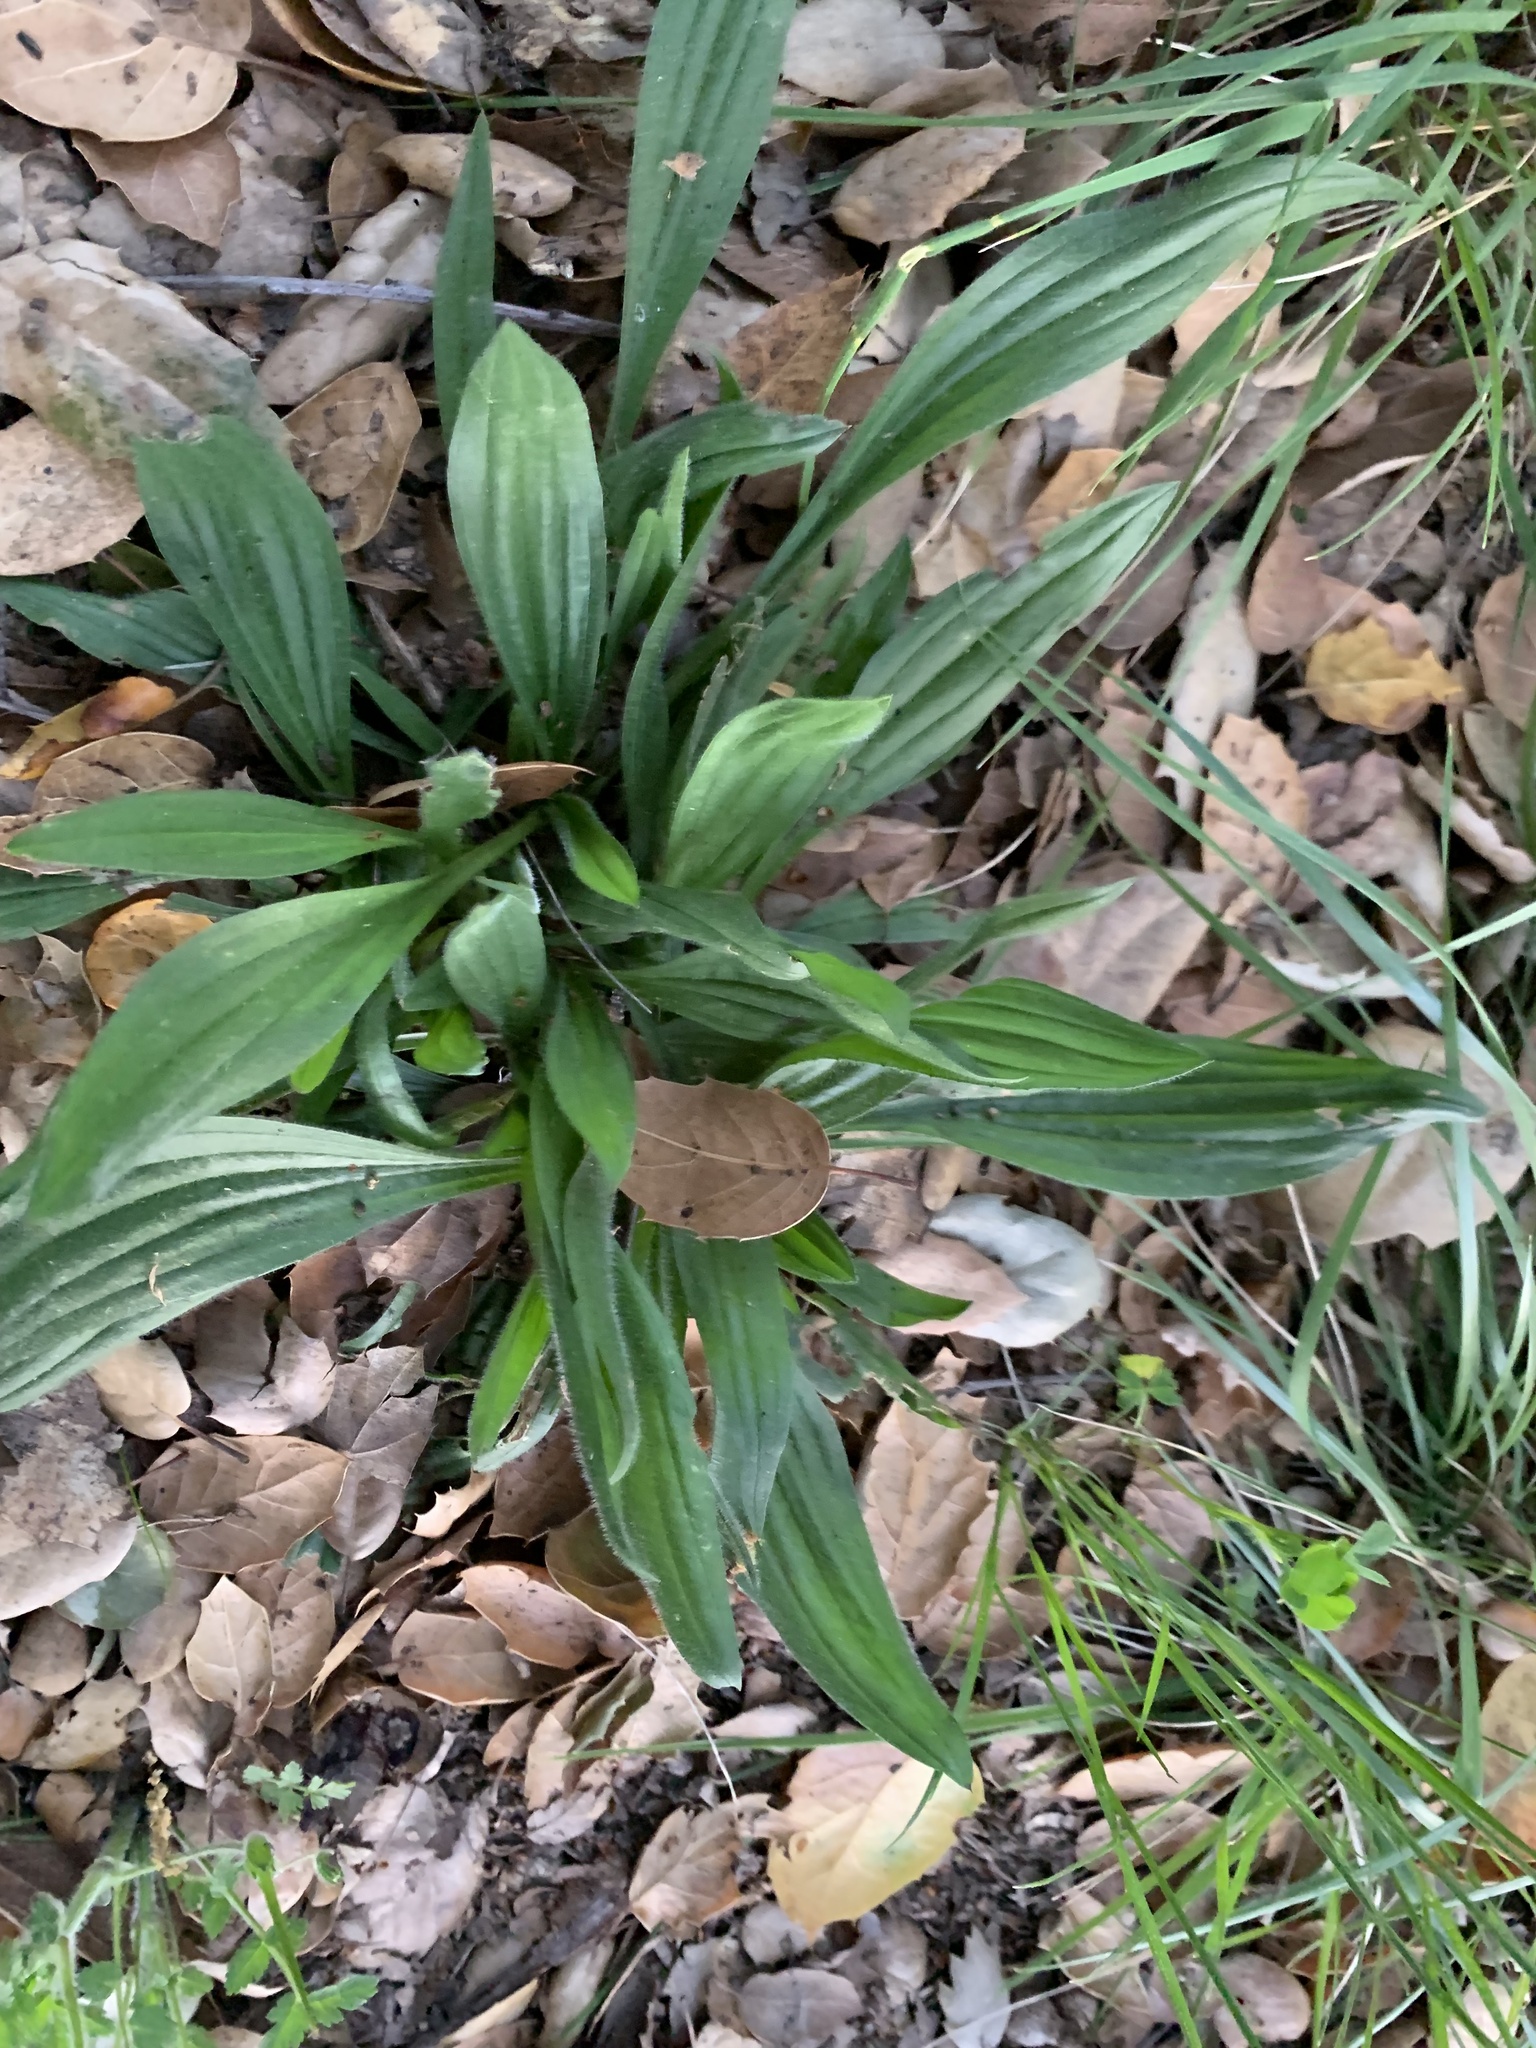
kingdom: Plantae
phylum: Tracheophyta
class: Magnoliopsida
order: Lamiales
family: Plantaginaceae
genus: Plantago
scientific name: Plantago lanceolata
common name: Ribwort plantain
